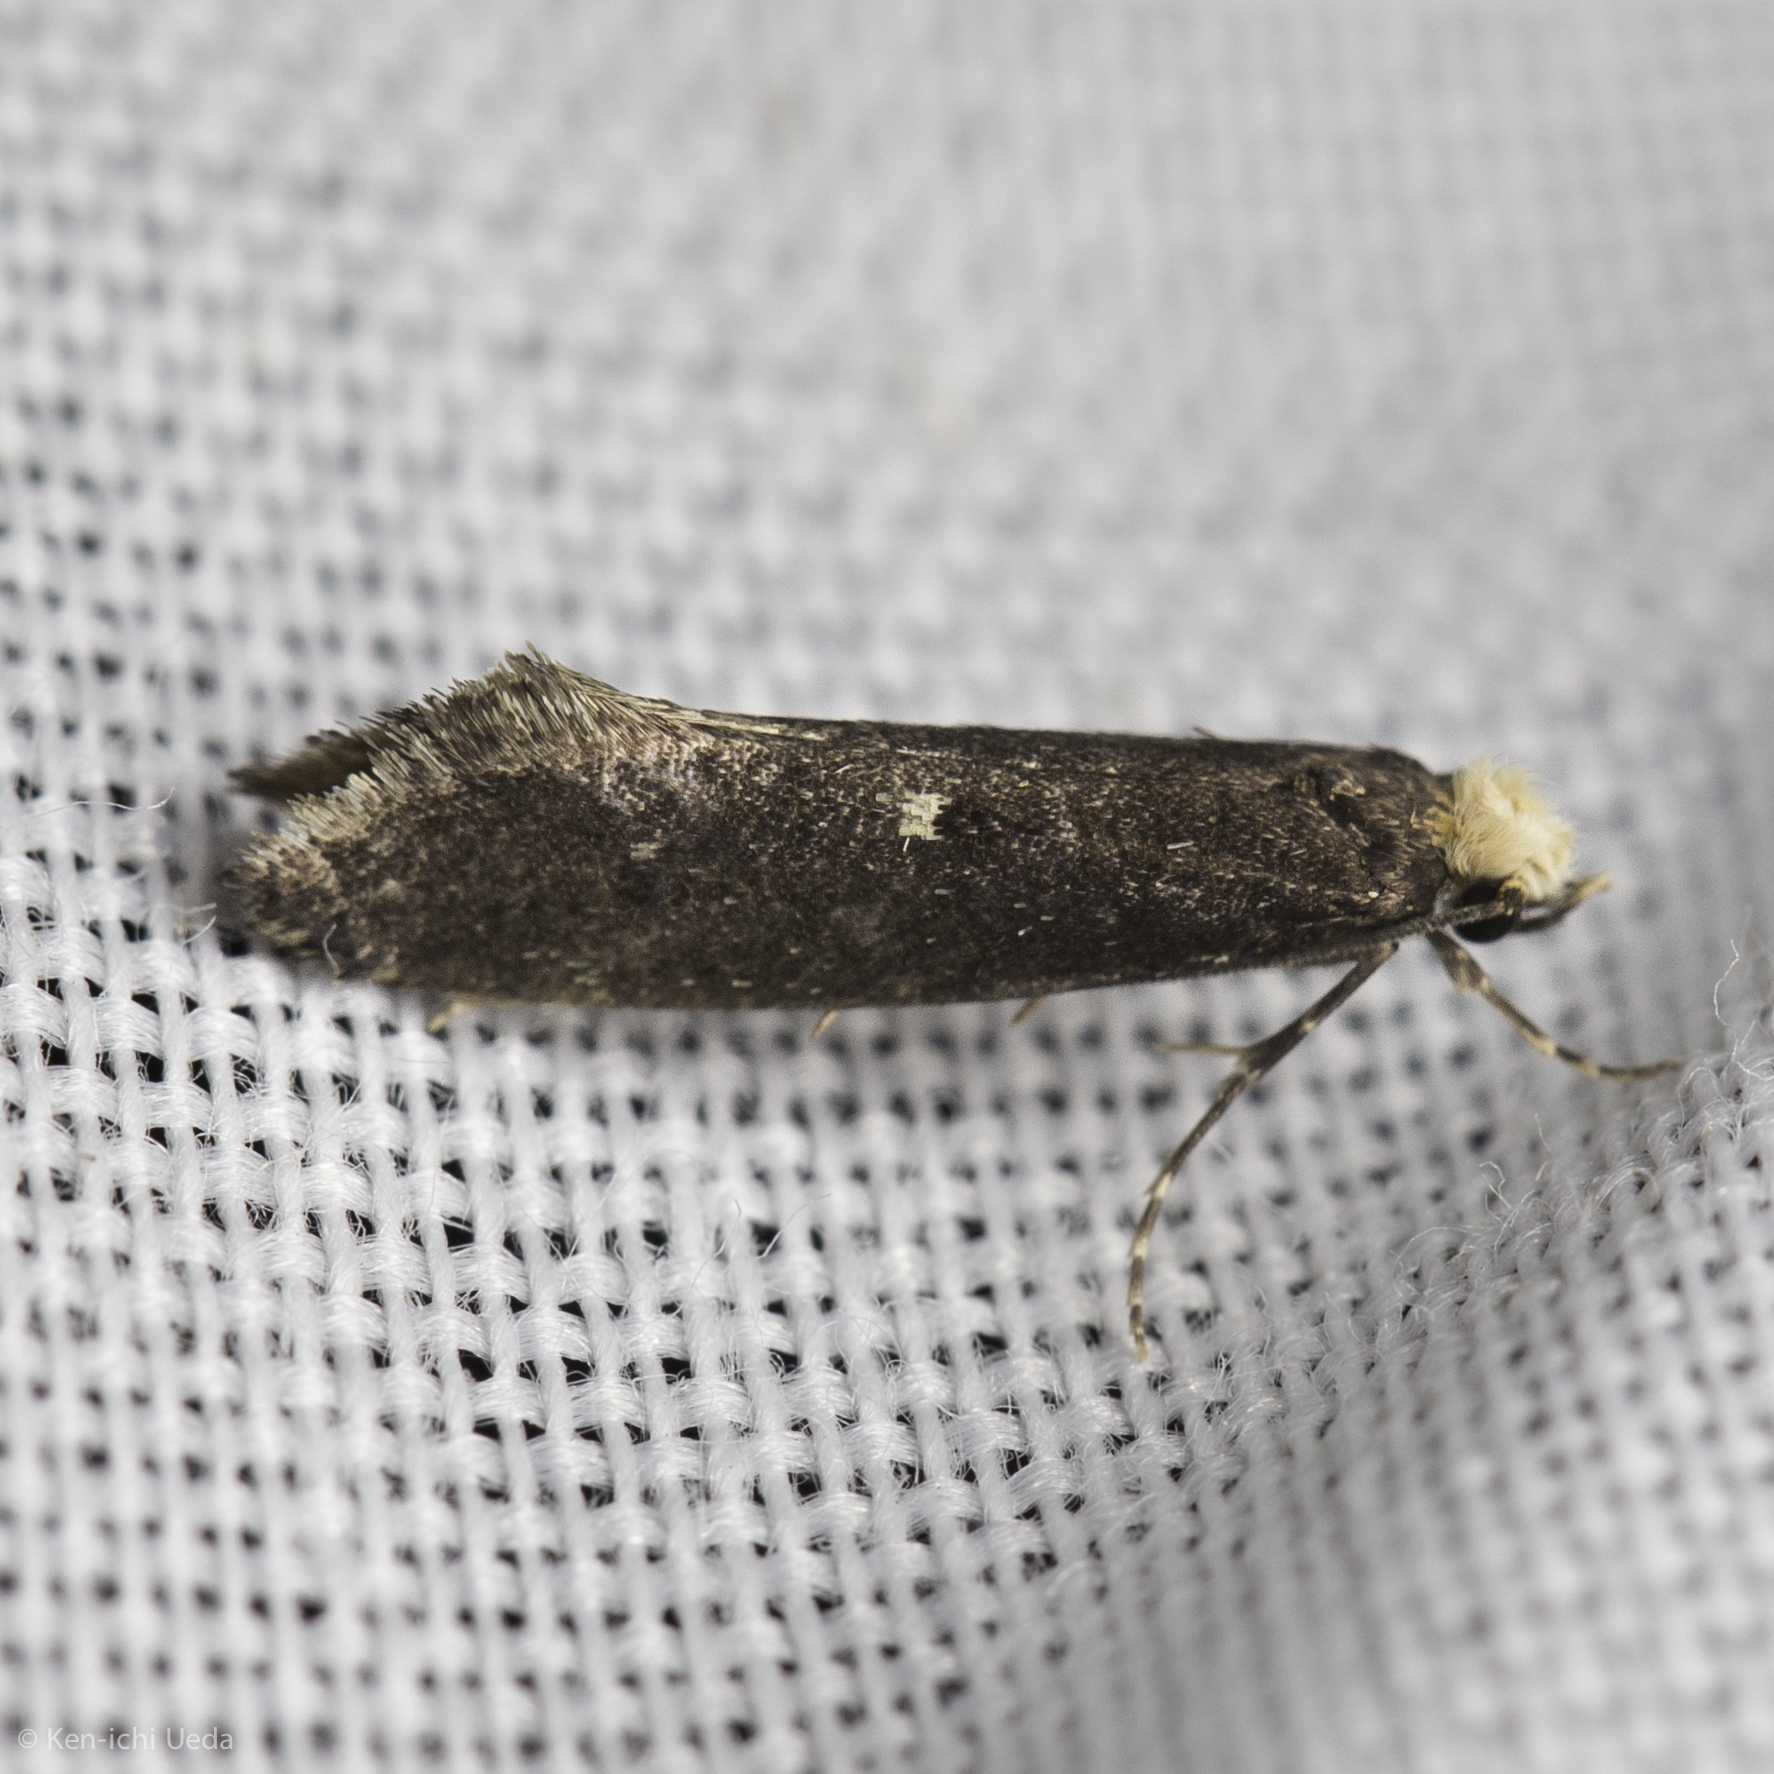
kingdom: Animalia
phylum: Arthropoda
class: Insecta
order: Lepidoptera
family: Tineidae
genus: Tinea
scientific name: Tinea niveocapitella
